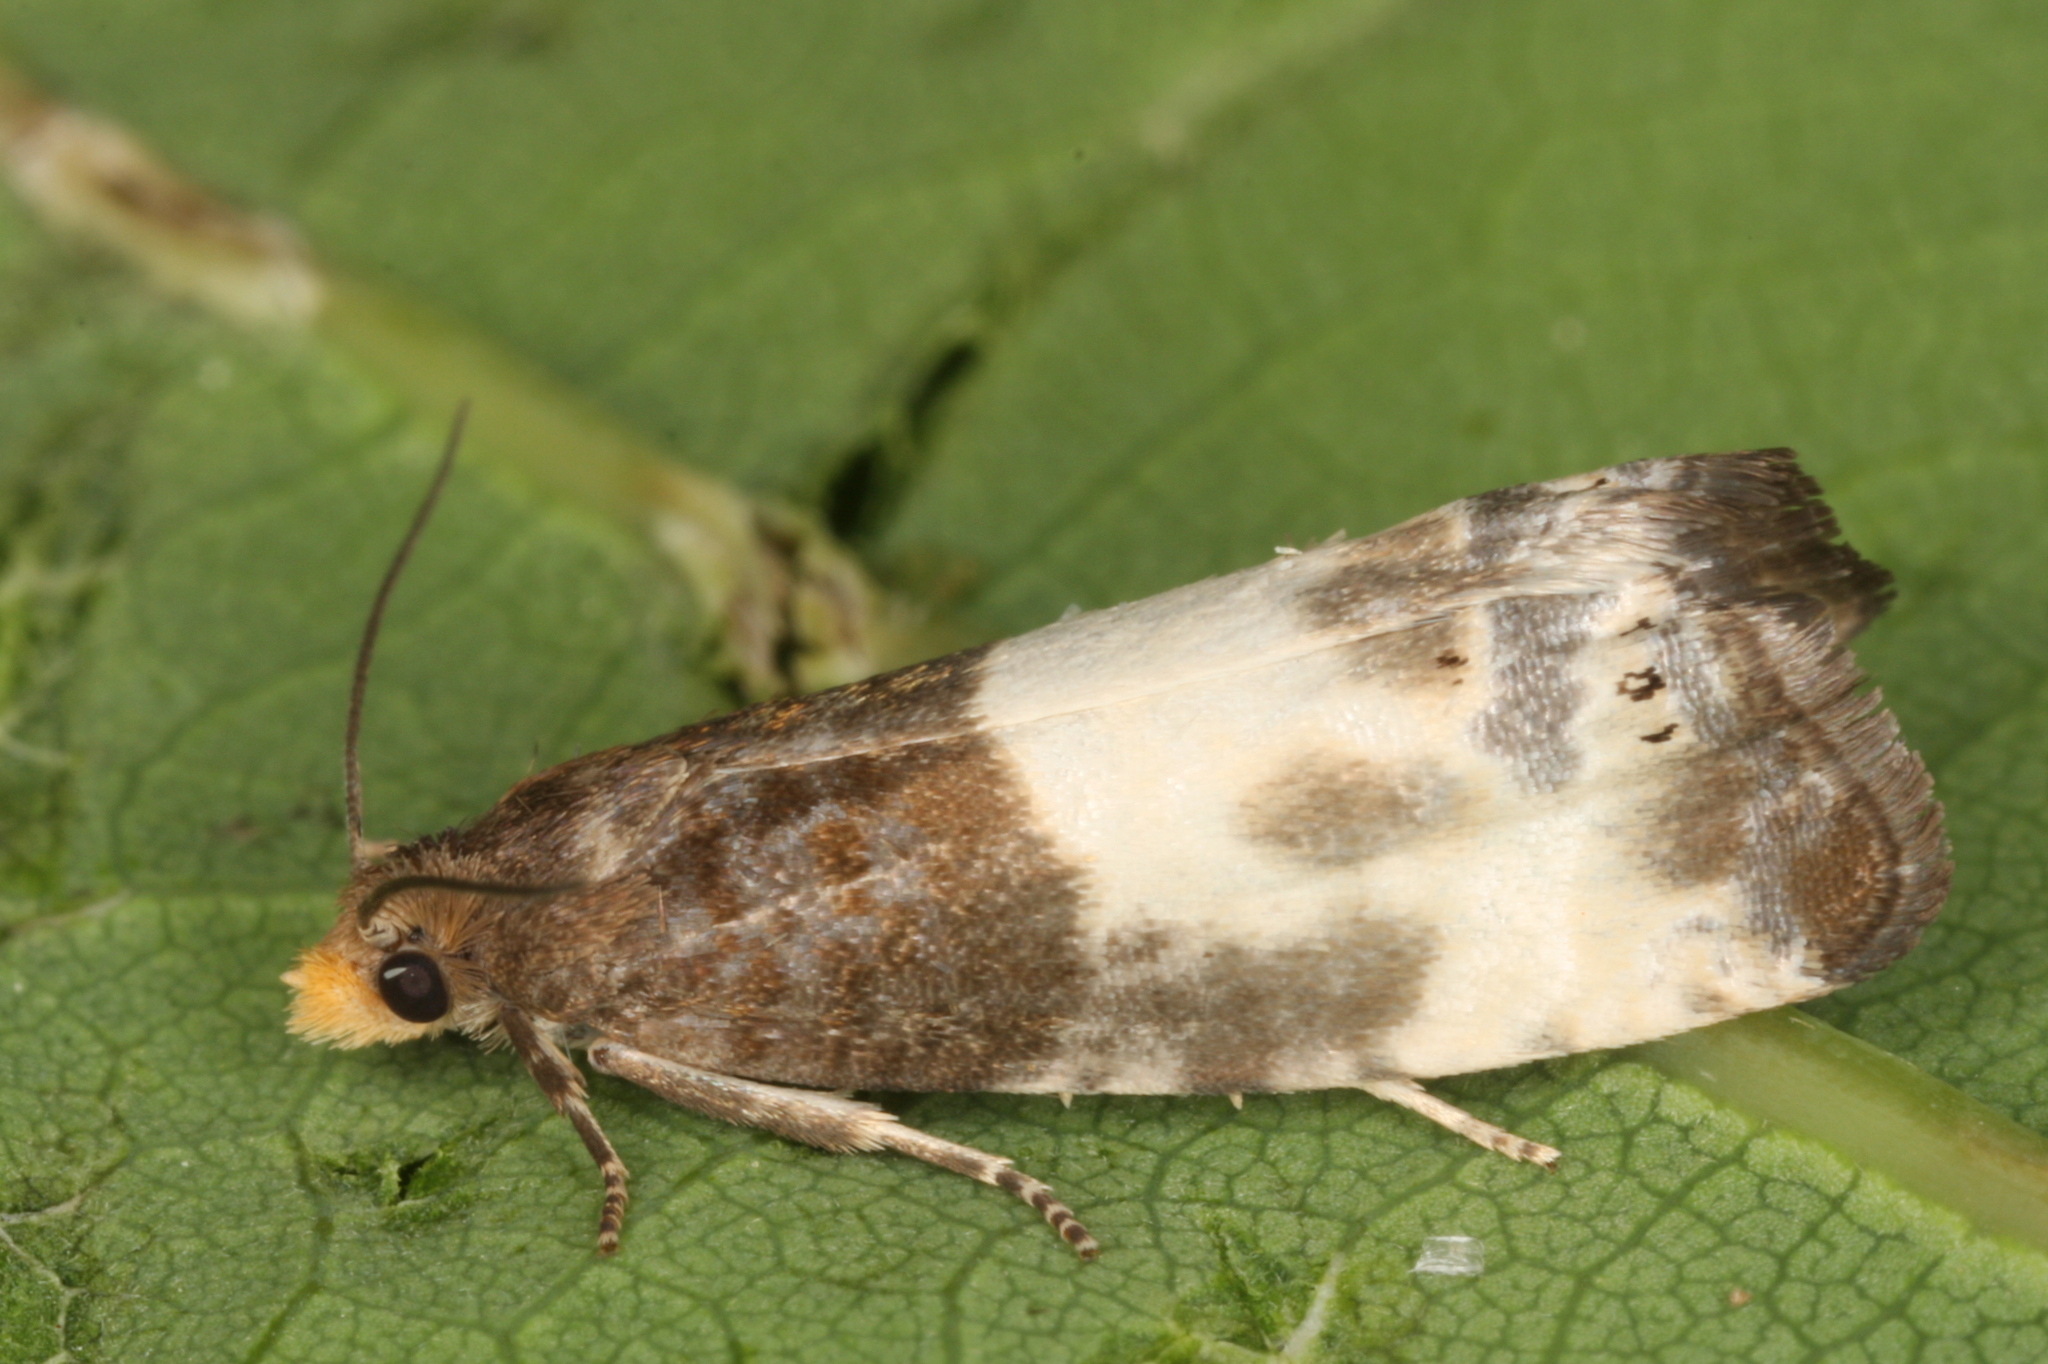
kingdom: Animalia
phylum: Arthropoda
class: Insecta
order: Lepidoptera
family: Tortricidae
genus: Notocelia
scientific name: Notocelia cynosbatella
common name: Yellow-faced bell moth
